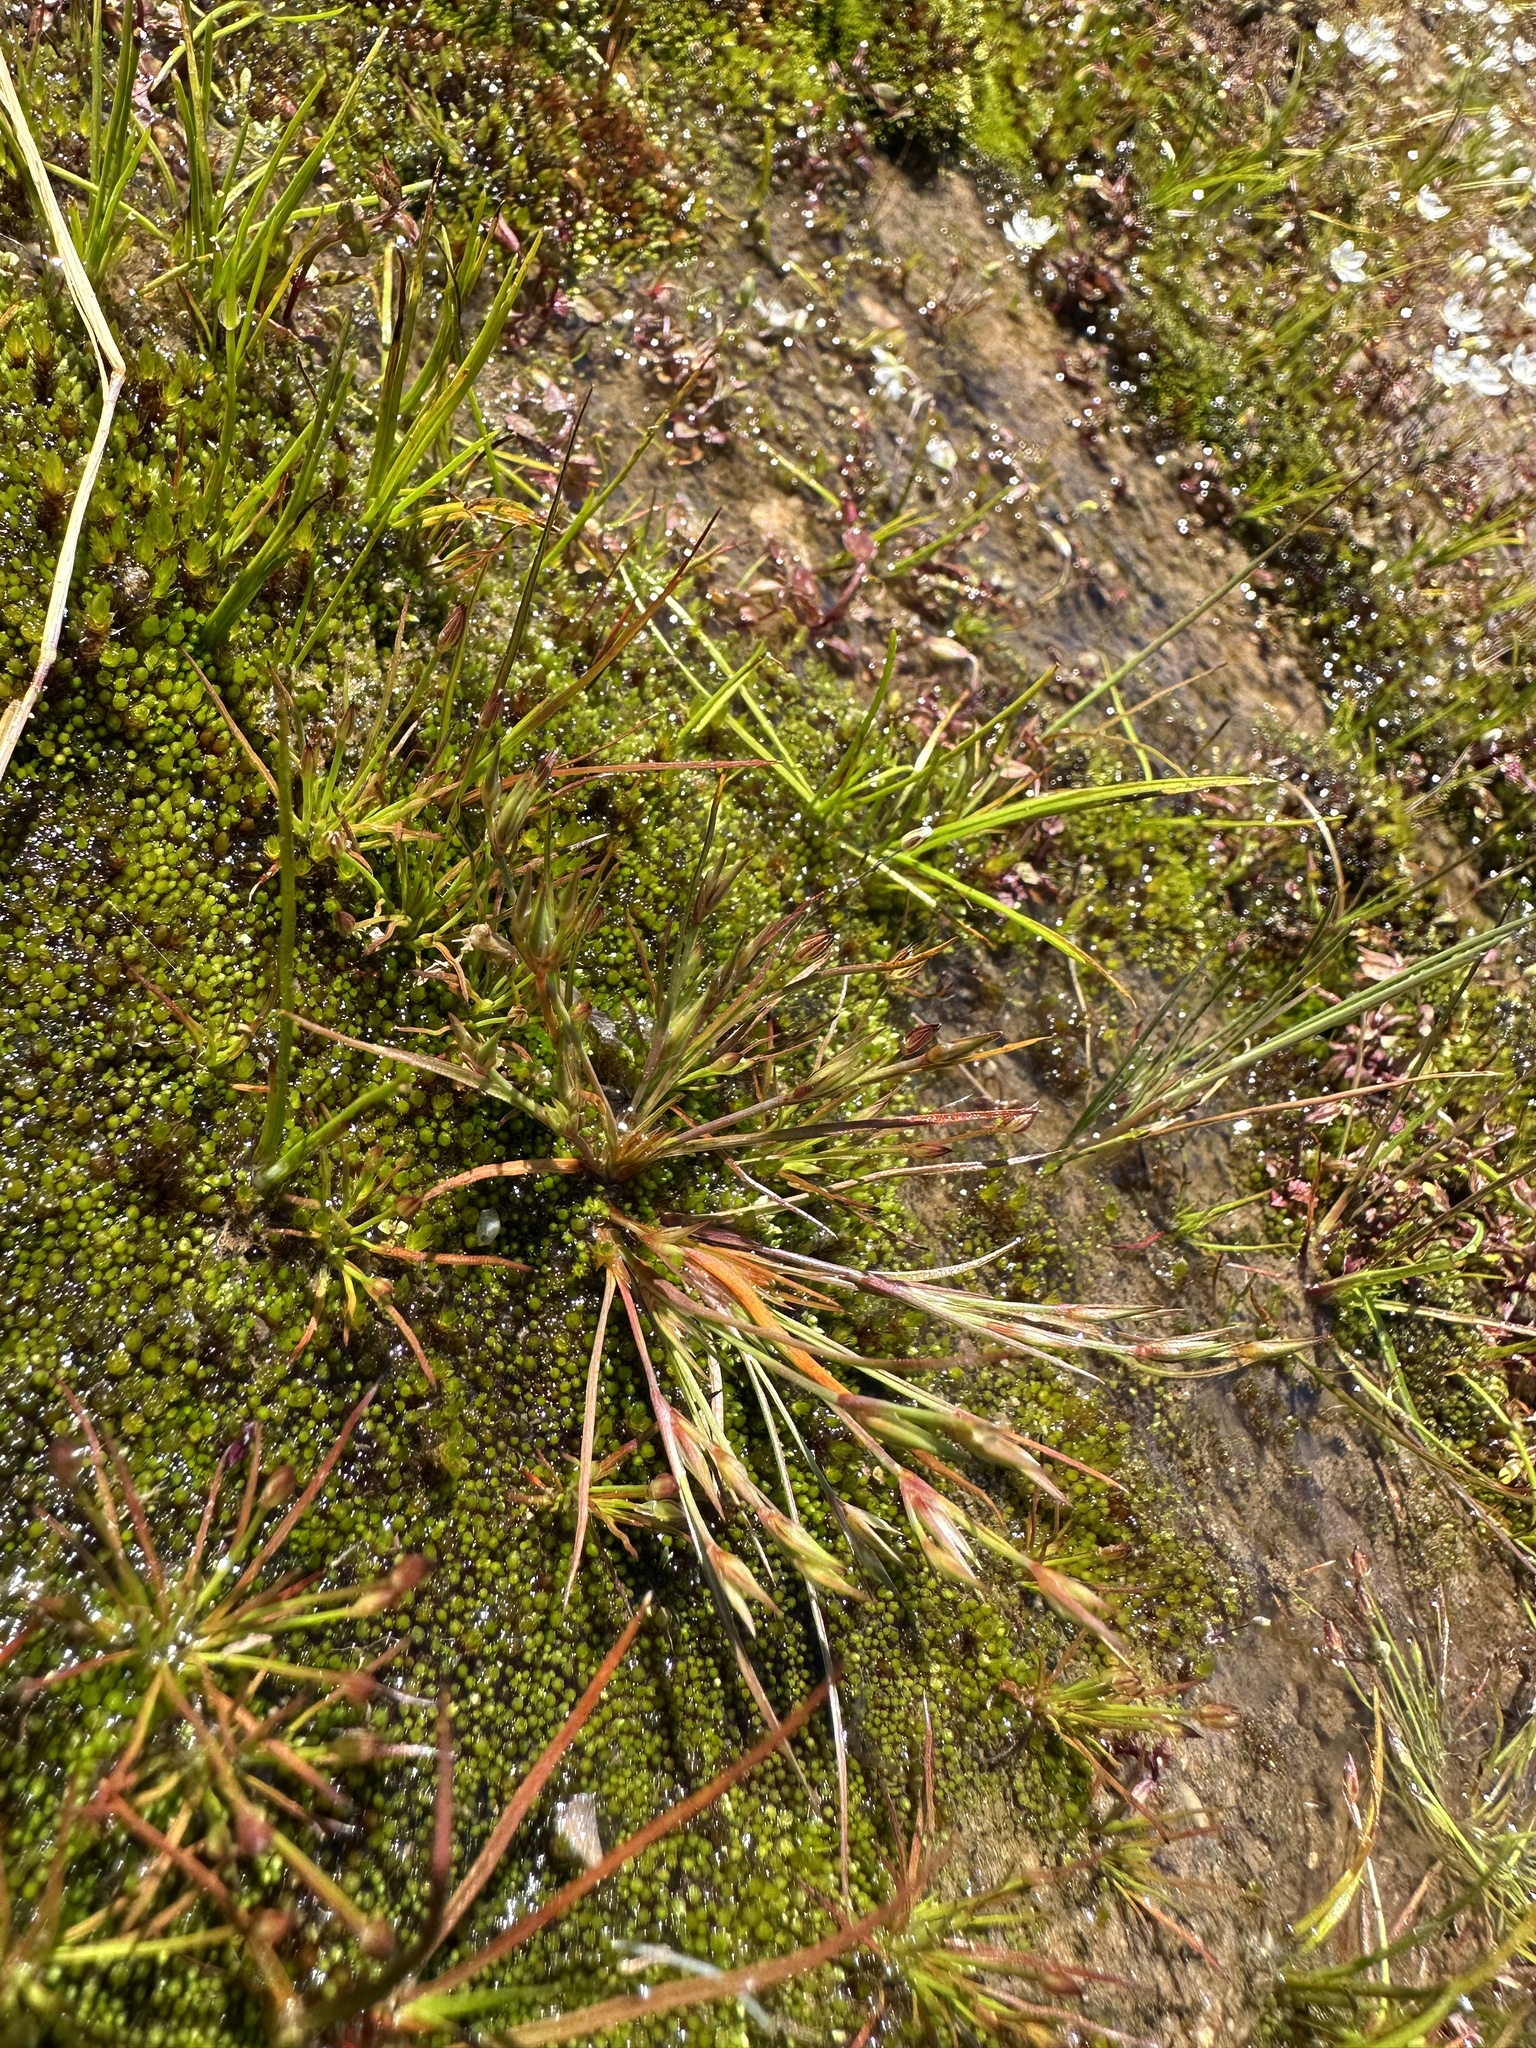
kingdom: Plantae
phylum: Tracheophyta
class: Liliopsida
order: Poales
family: Juncaceae
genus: Juncus
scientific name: Juncus bufonius
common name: Toad rush
